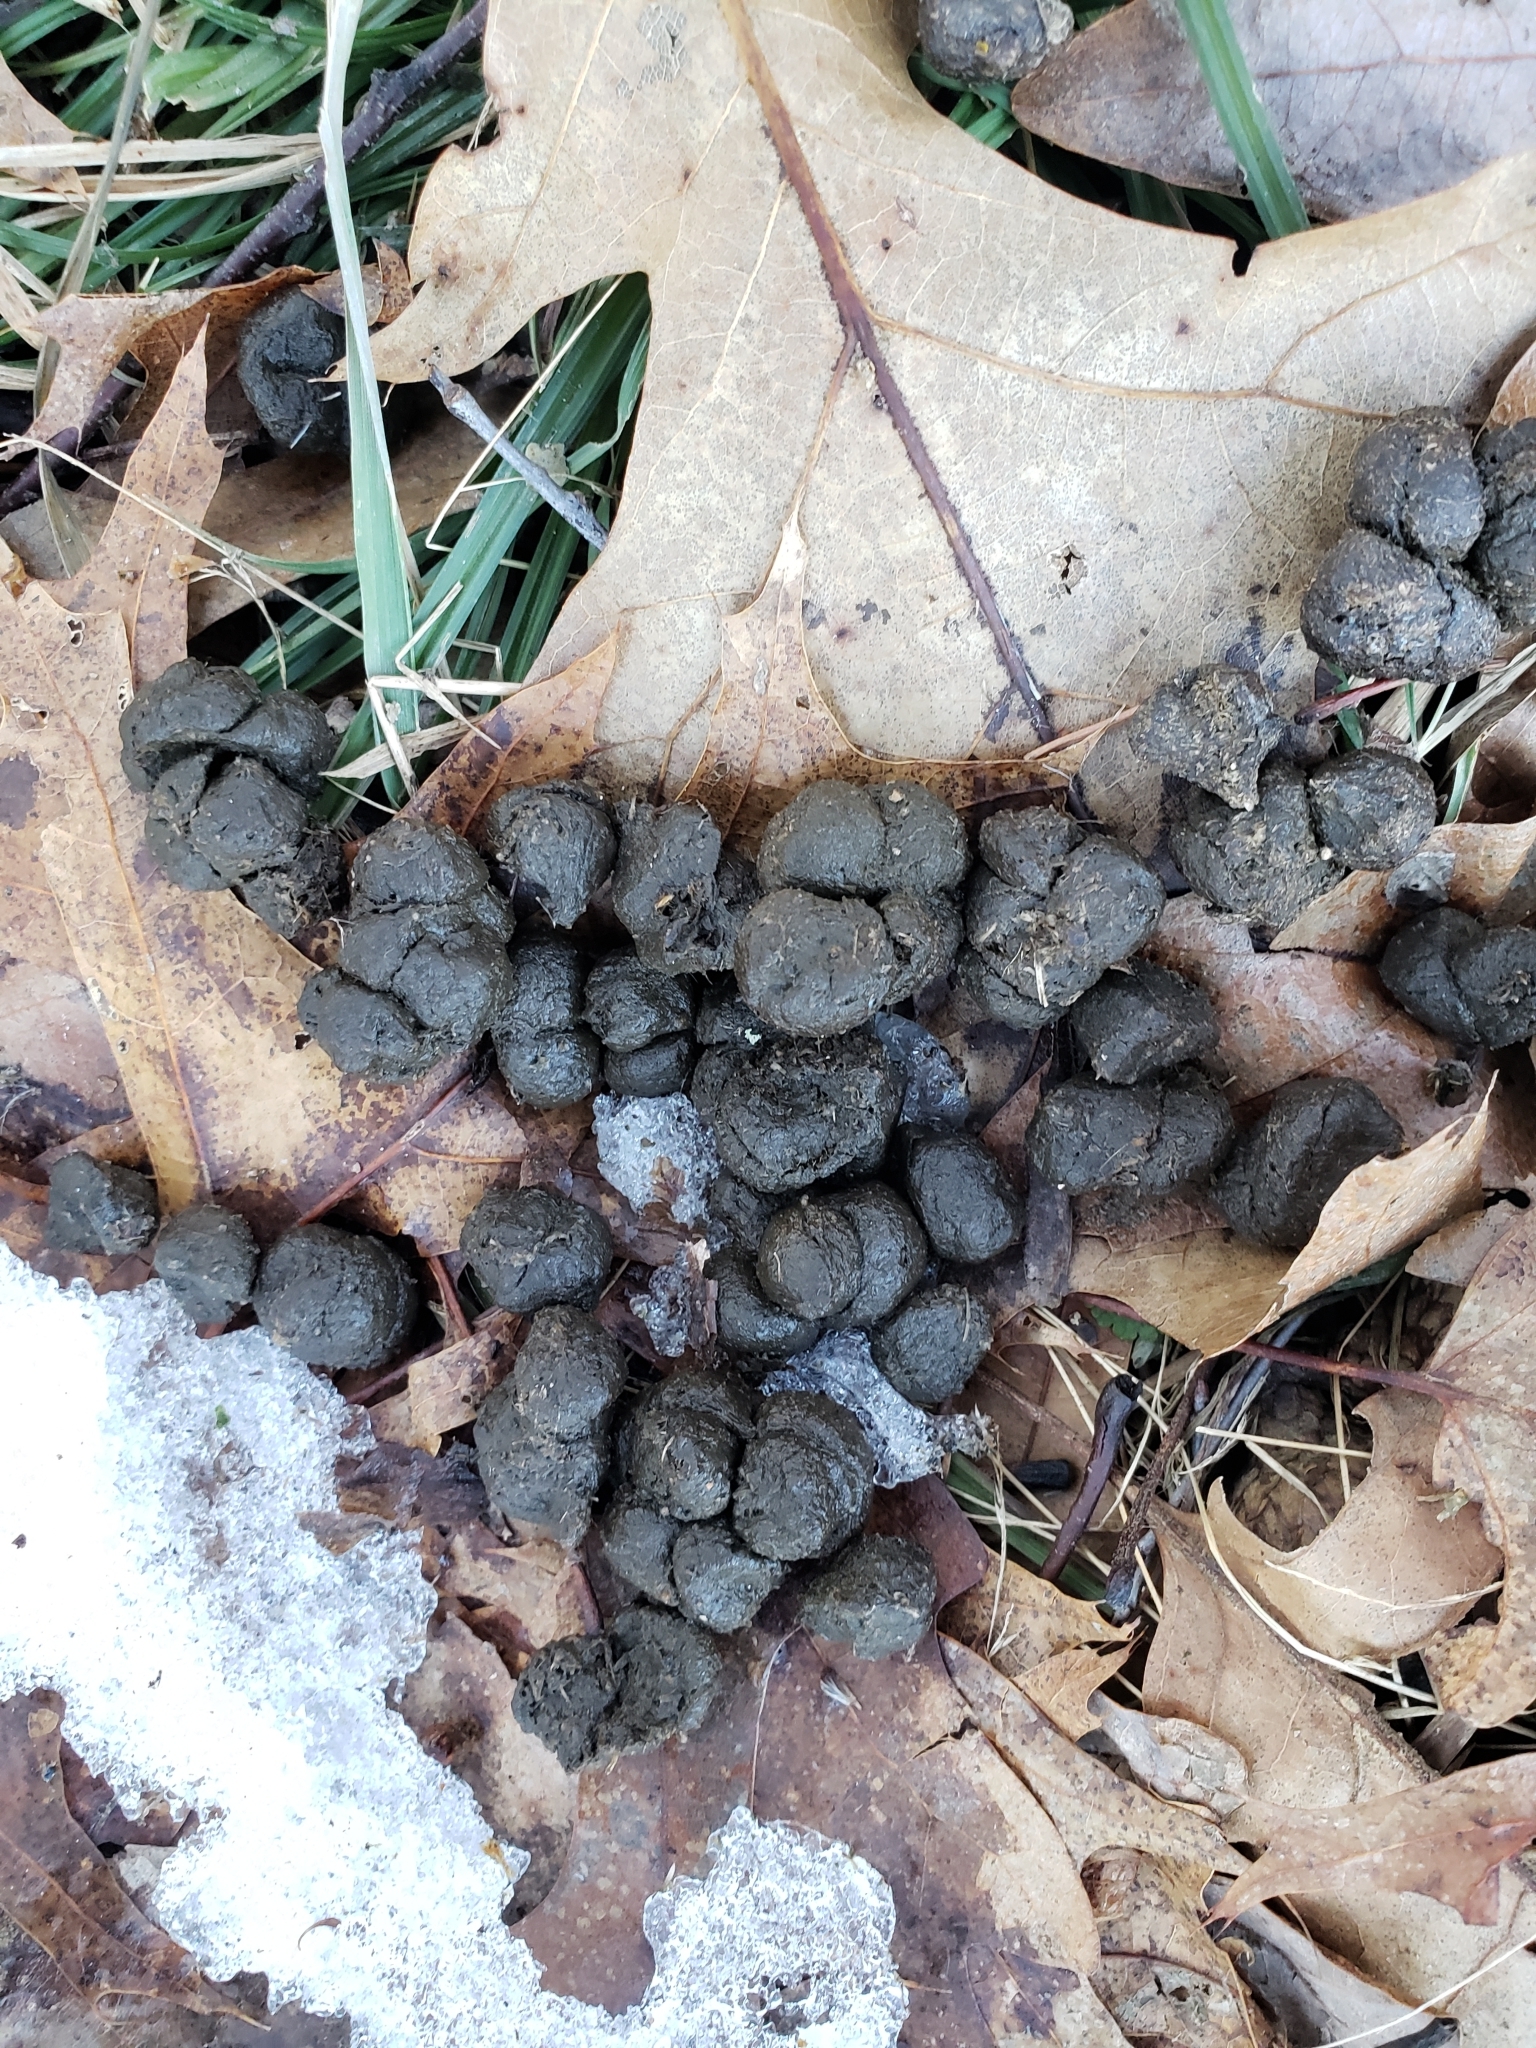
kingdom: Animalia
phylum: Chordata
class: Mammalia
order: Artiodactyla
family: Cervidae
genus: Odocoileus
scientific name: Odocoileus virginianus
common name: White-tailed deer
